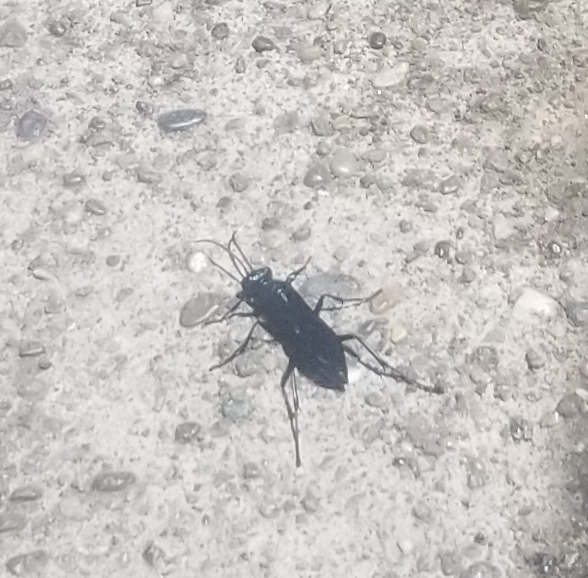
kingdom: Animalia
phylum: Arthropoda
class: Insecta
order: Hymenoptera
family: Sphecidae
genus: Chalybion
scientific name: Chalybion californicum
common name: Mud dauber
